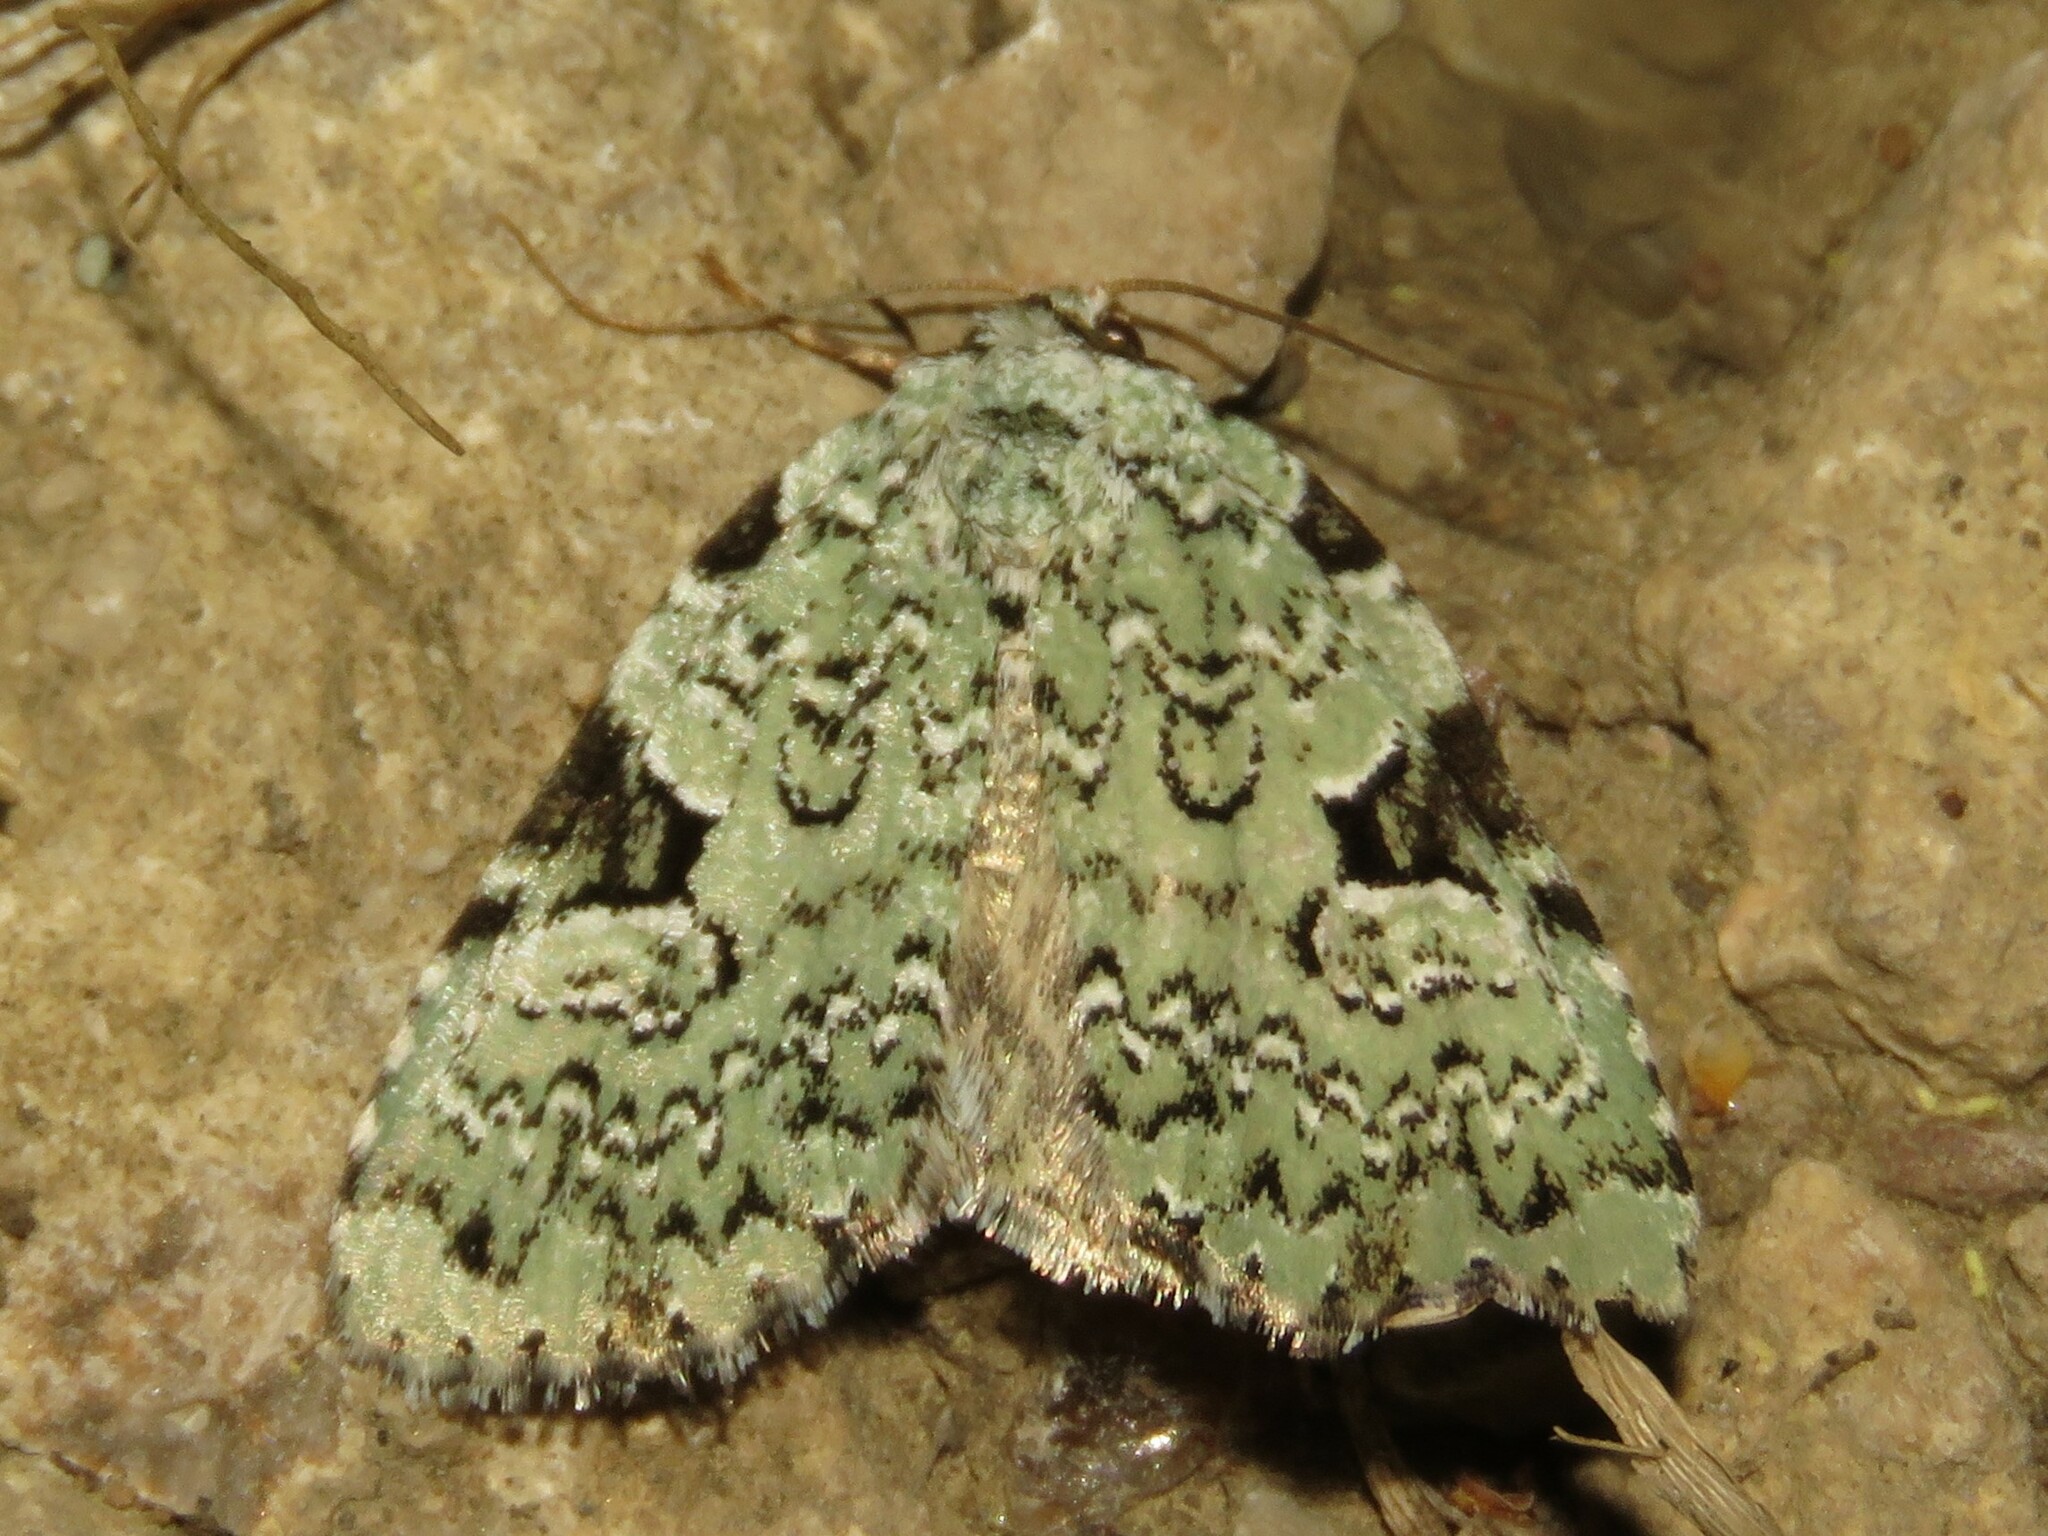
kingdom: Animalia
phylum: Arthropoda
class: Insecta
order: Lepidoptera
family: Noctuidae
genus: Leuconycta
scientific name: Leuconycta diphteroides
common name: Green leuconycta moth
